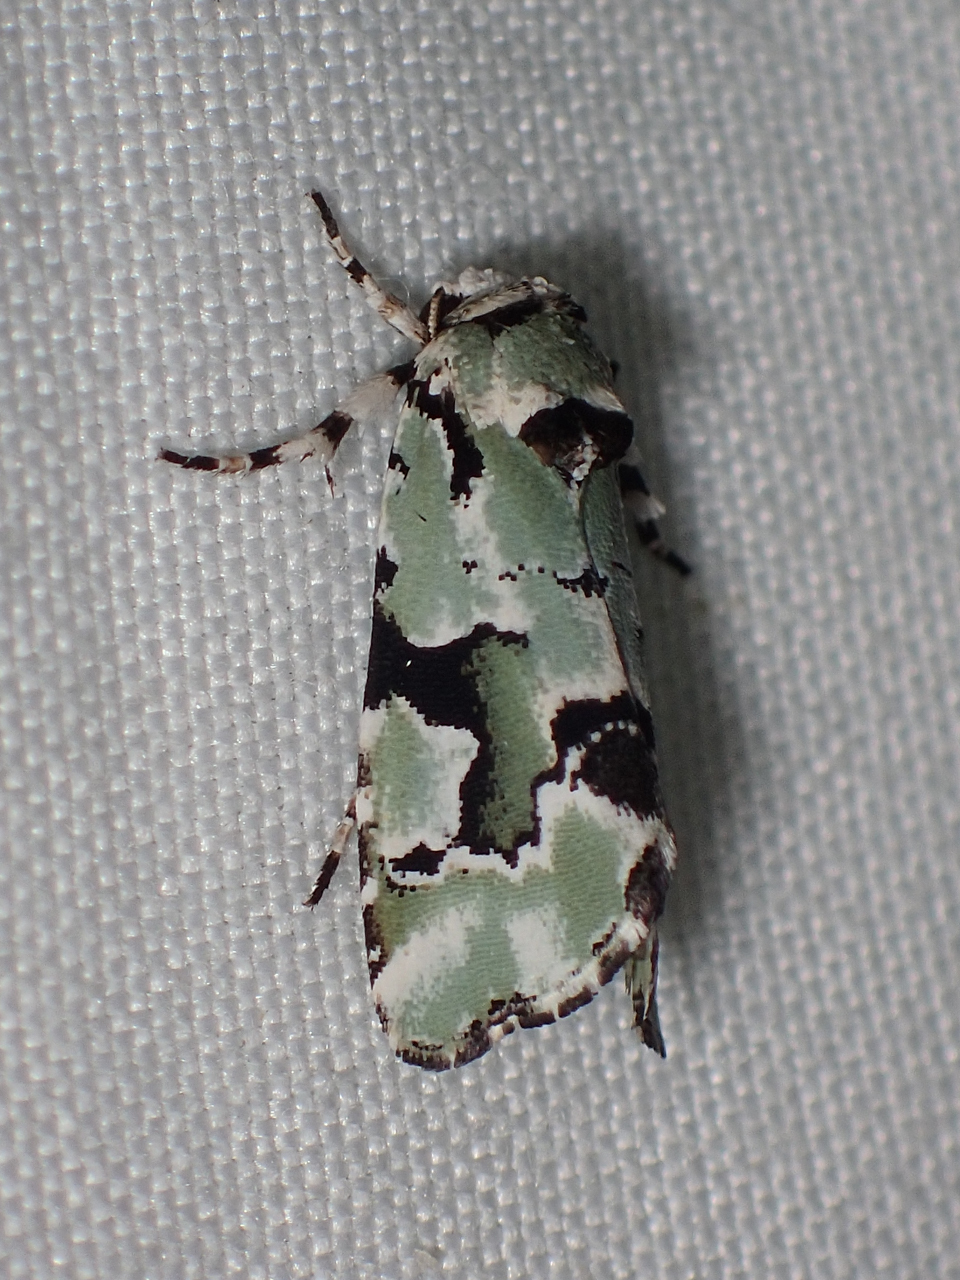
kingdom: Animalia
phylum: Arthropoda
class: Insecta
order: Lepidoptera
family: Noctuidae
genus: Emarginea
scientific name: Emarginea percara
